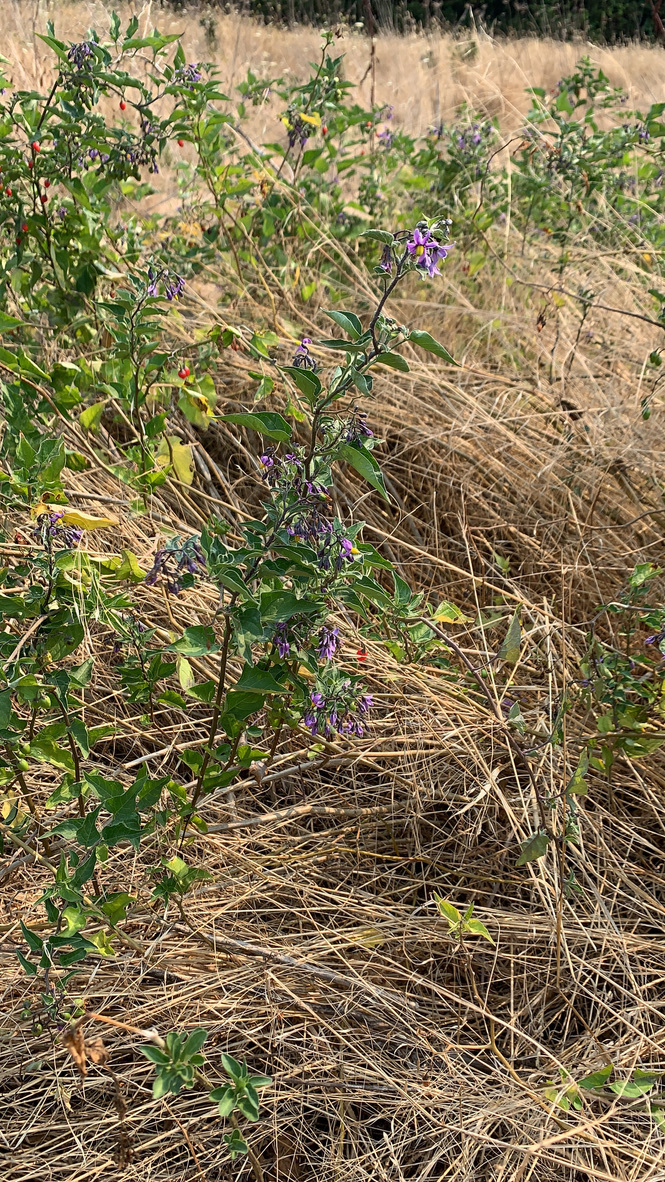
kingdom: Plantae
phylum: Tracheophyta
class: Magnoliopsida
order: Solanales
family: Solanaceae
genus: Solanum
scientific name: Solanum dulcamara
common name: Climbing nightshade
